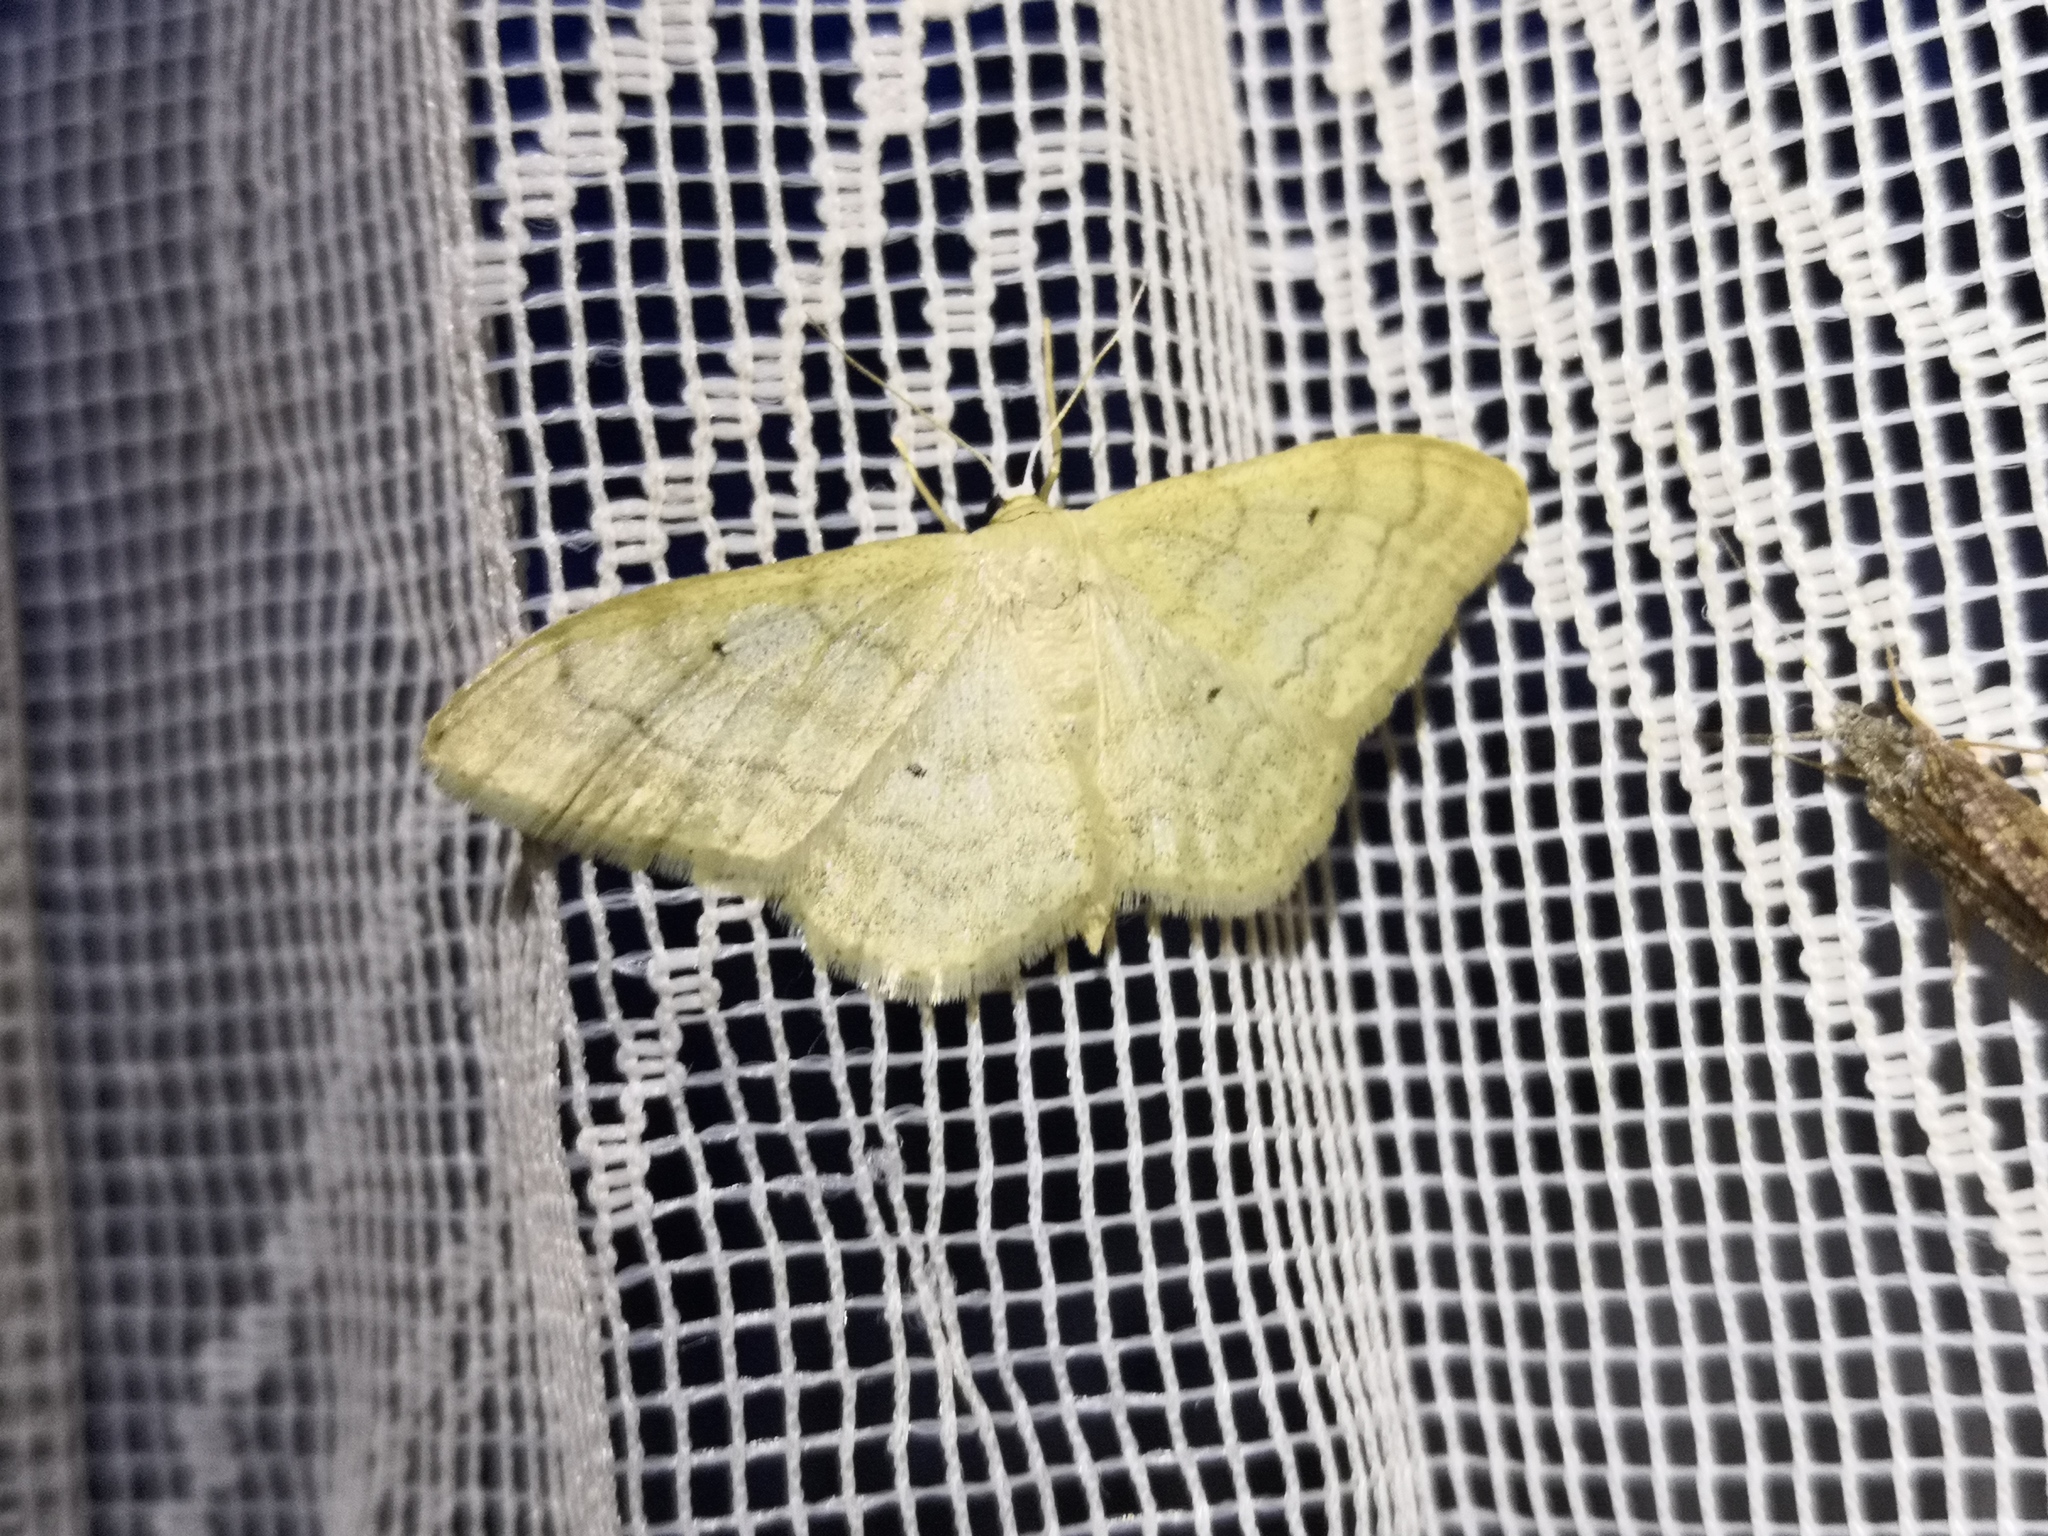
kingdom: Animalia
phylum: Arthropoda
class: Insecta
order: Lepidoptera
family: Geometridae
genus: Idaea
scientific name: Idaea maritimaria
